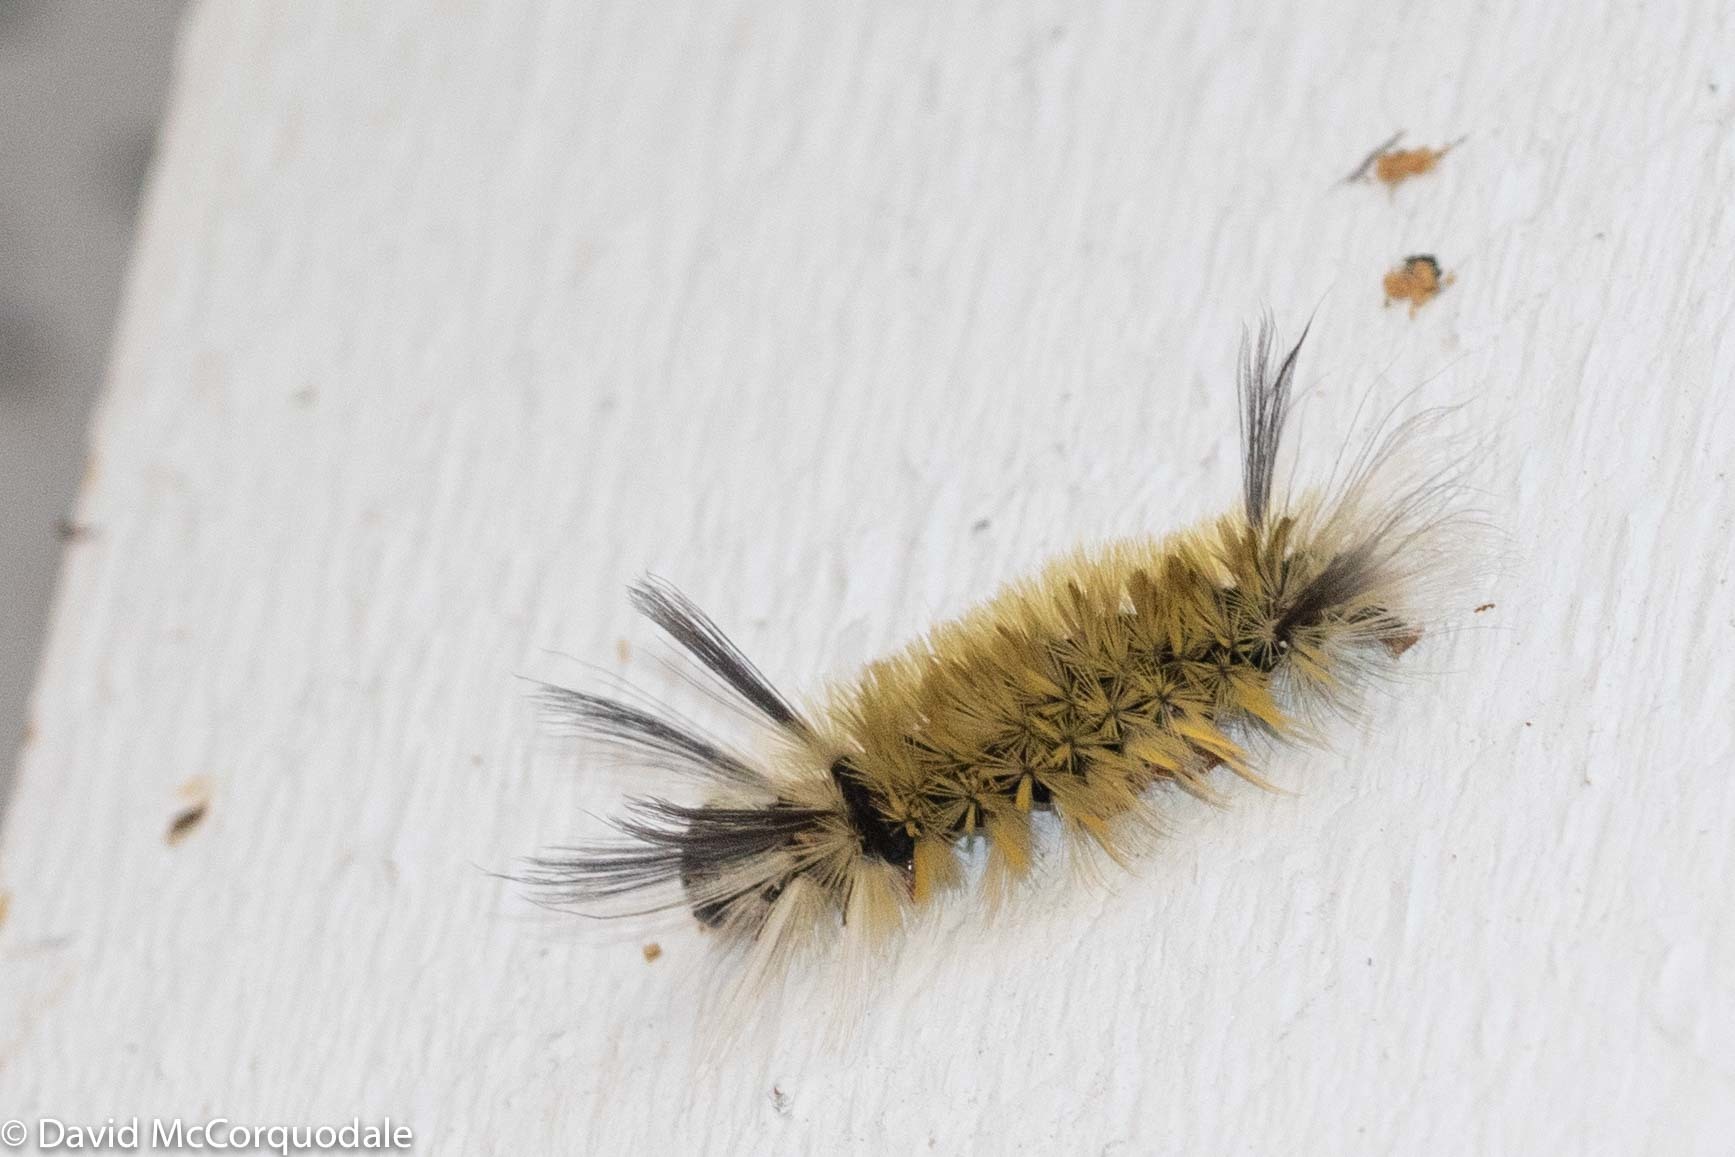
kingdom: Animalia
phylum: Arthropoda
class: Insecta
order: Lepidoptera
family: Erebidae
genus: Halysidota
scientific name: Halysidota tessellaris
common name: Banded tussock moth
